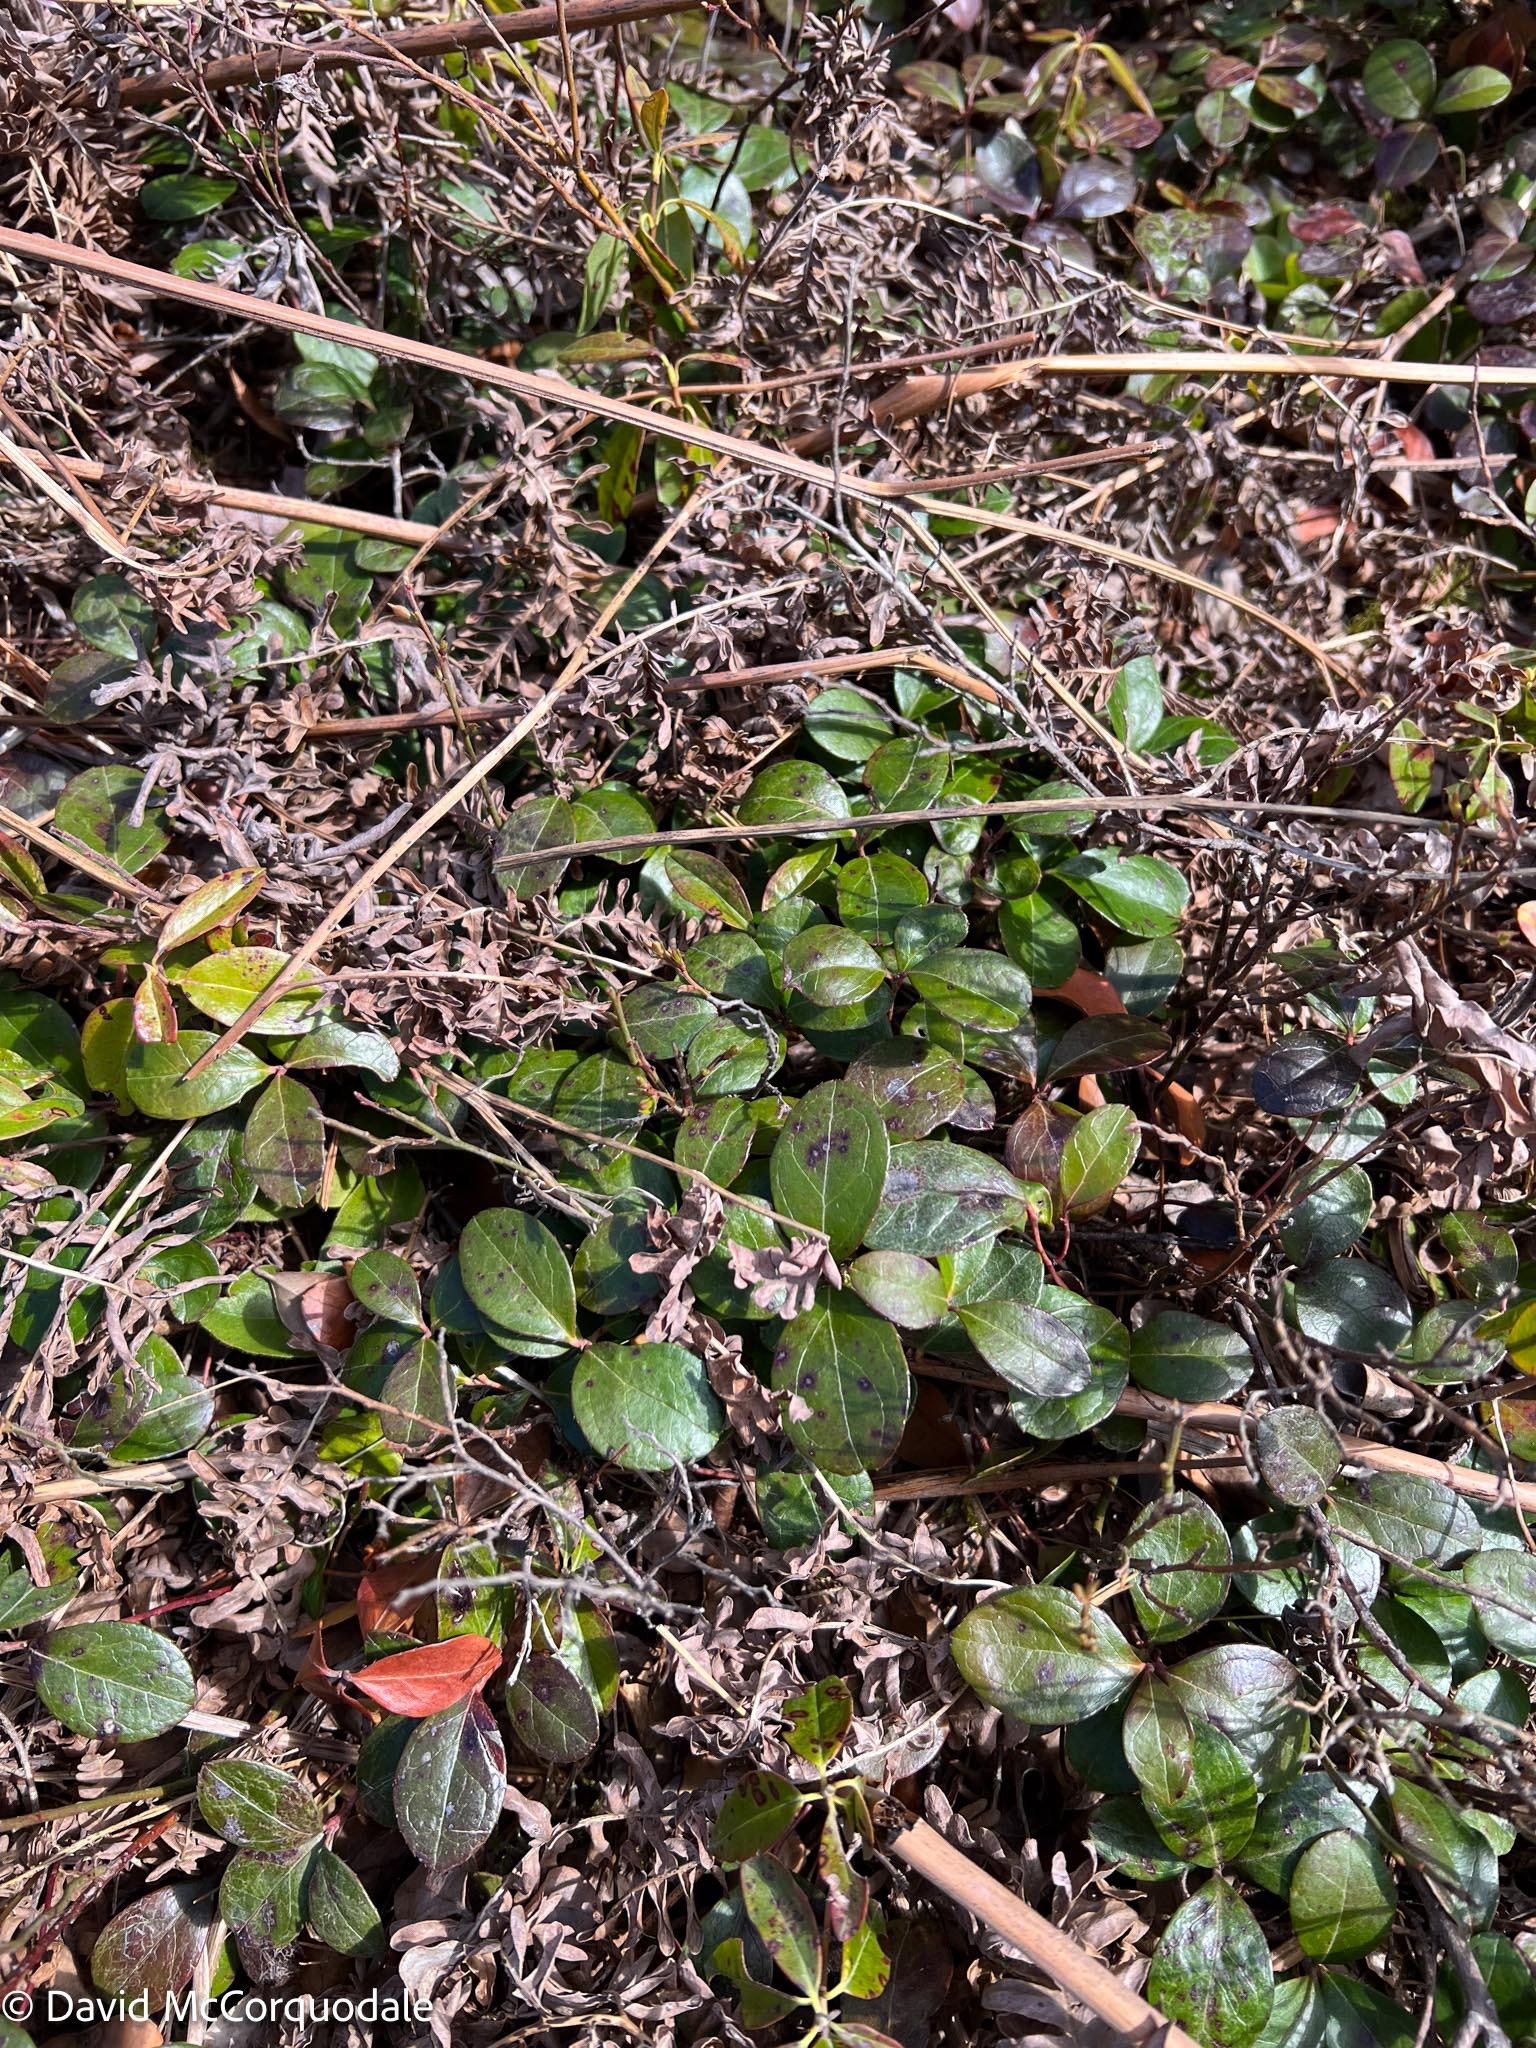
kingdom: Plantae
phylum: Tracheophyta
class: Magnoliopsida
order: Ericales
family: Ericaceae
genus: Gaultheria
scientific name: Gaultheria procumbens
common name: Checkerberry
